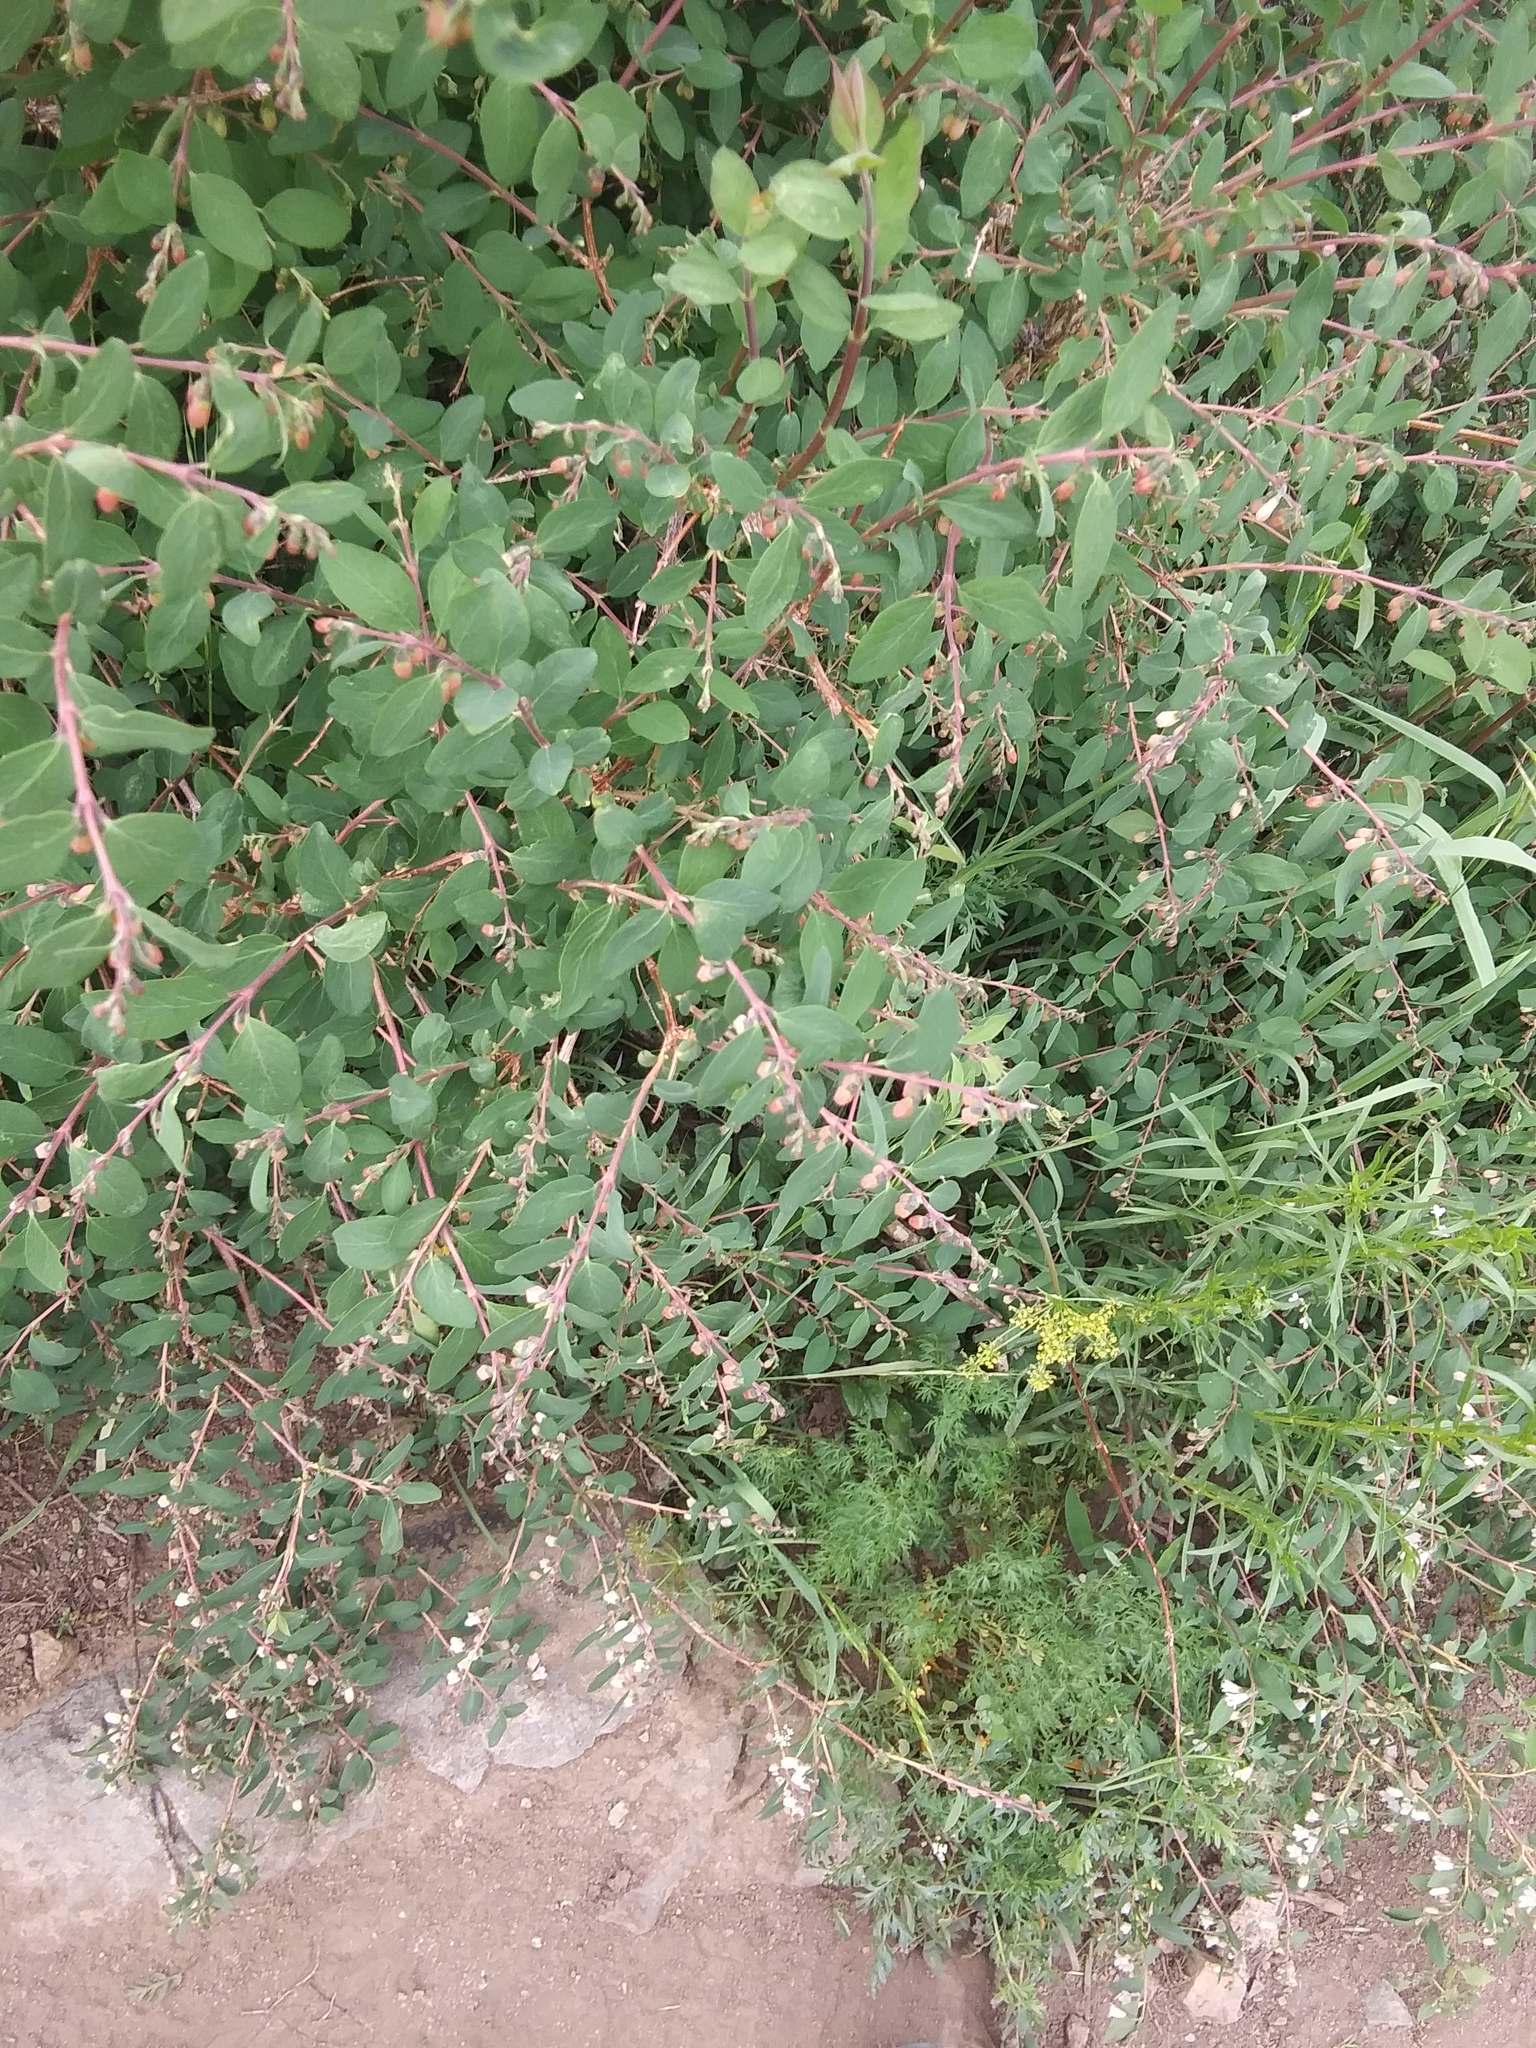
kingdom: Plantae
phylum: Tracheophyta
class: Magnoliopsida
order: Dipsacales
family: Caprifoliaceae
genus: Symphoricarpos
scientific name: Symphoricarpos rotundifolius
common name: Round-leaved snowberry
